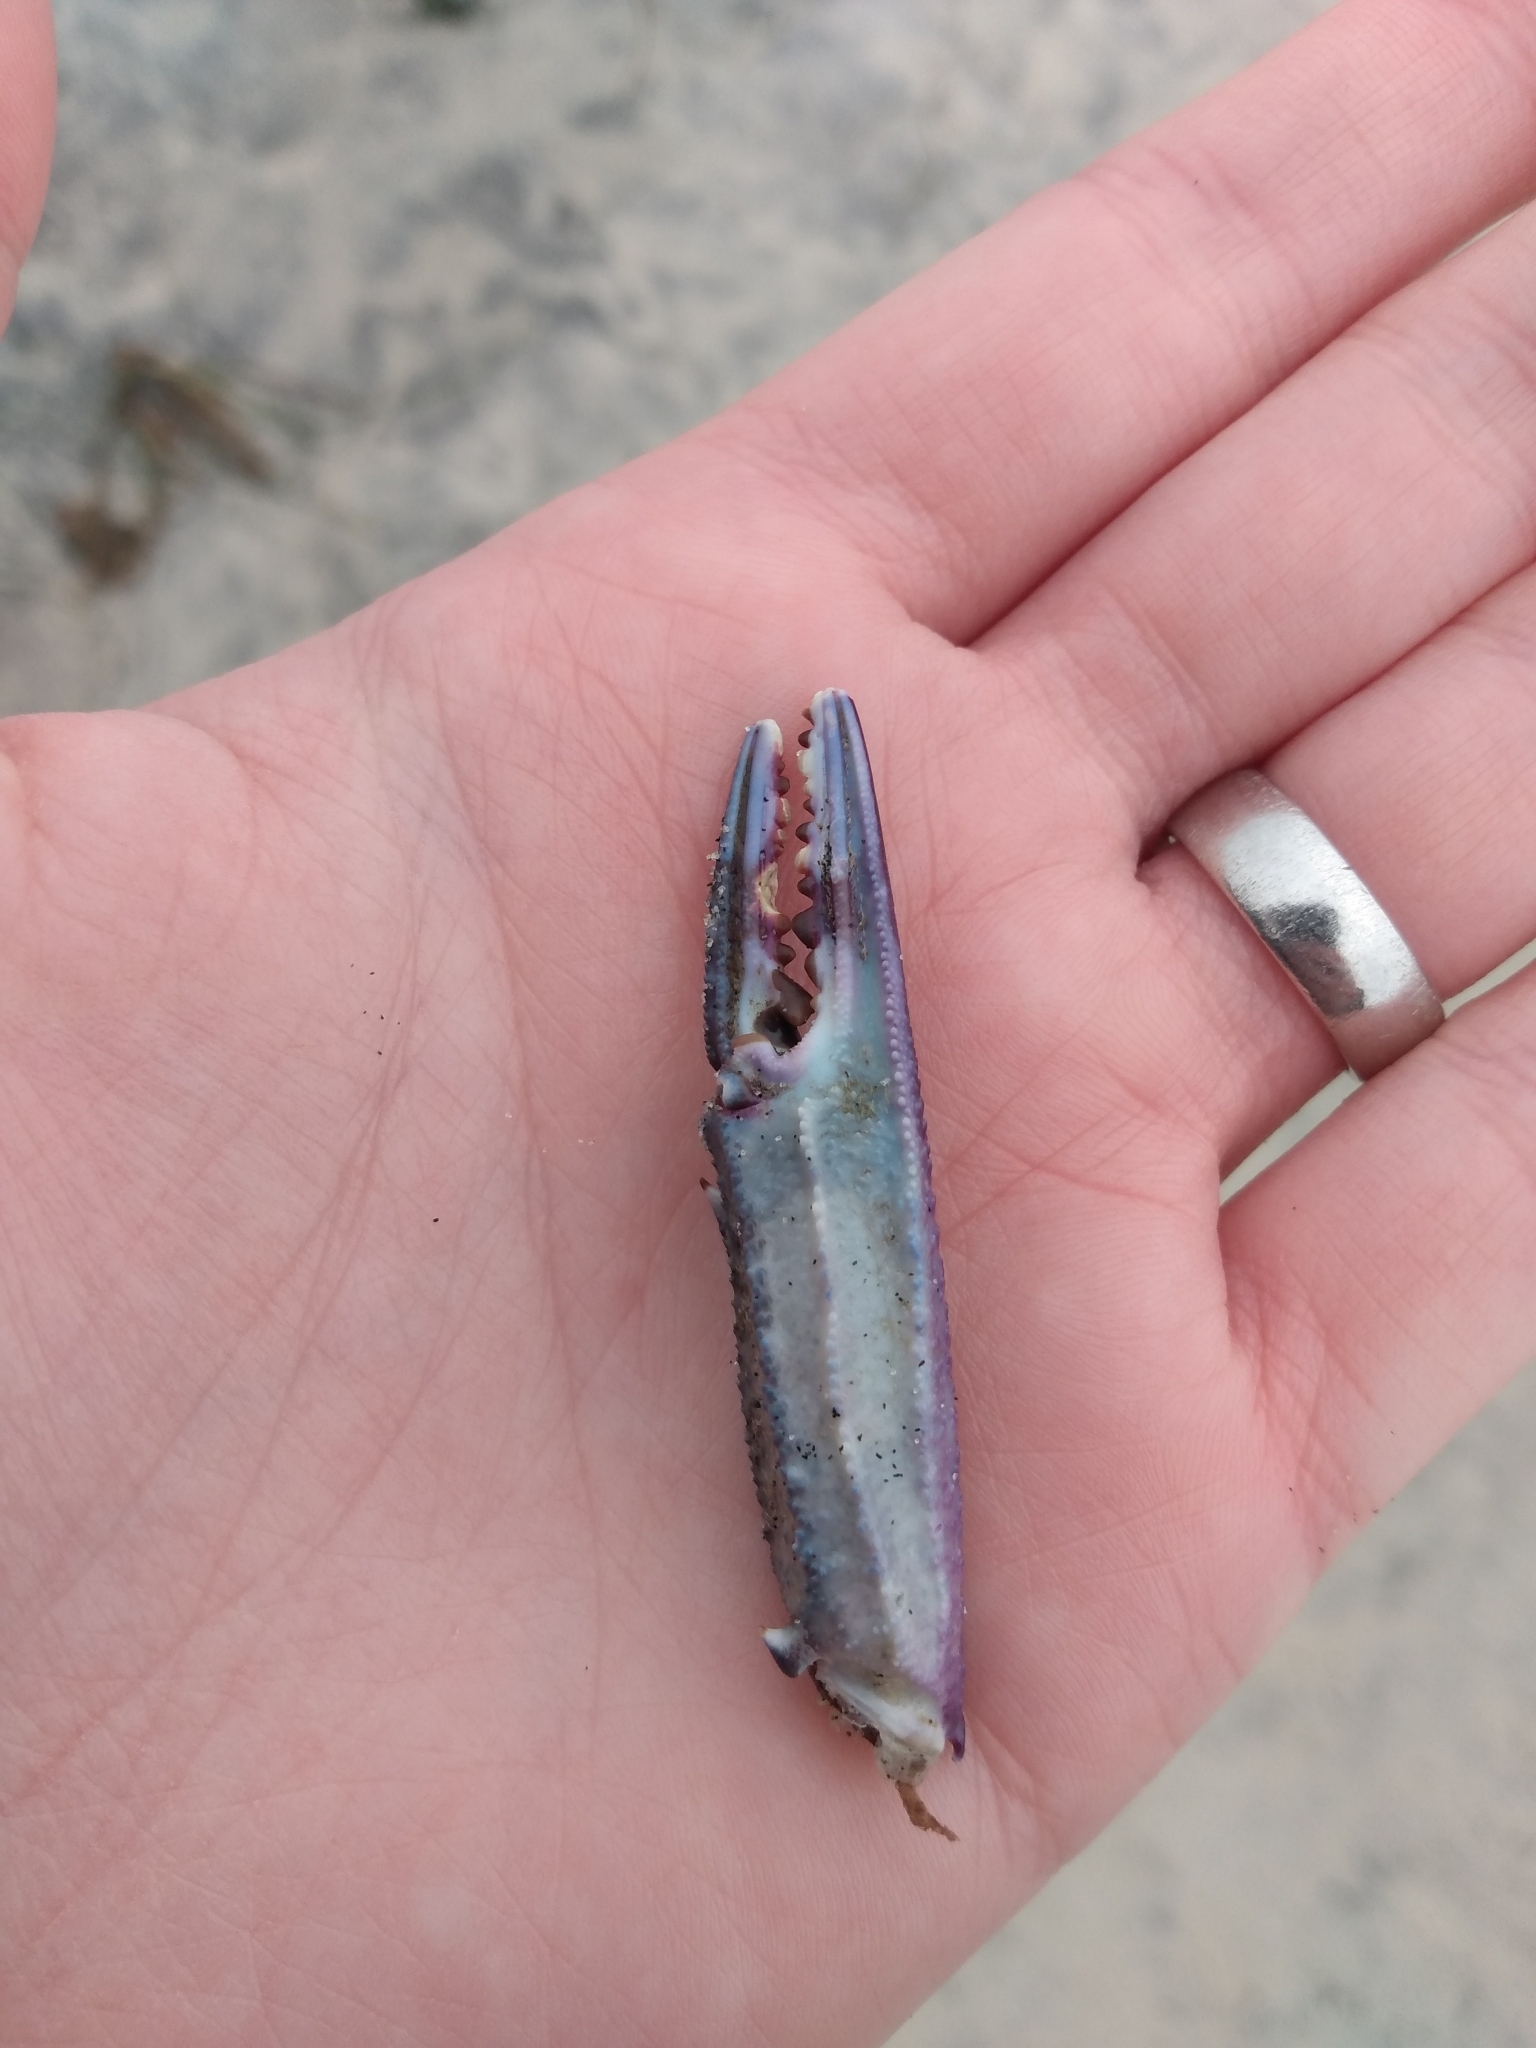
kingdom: Animalia
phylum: Arthropoda
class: Malacostraca
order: Decapoda
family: Portunidae
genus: Achelous
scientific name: Achelous xantusii
